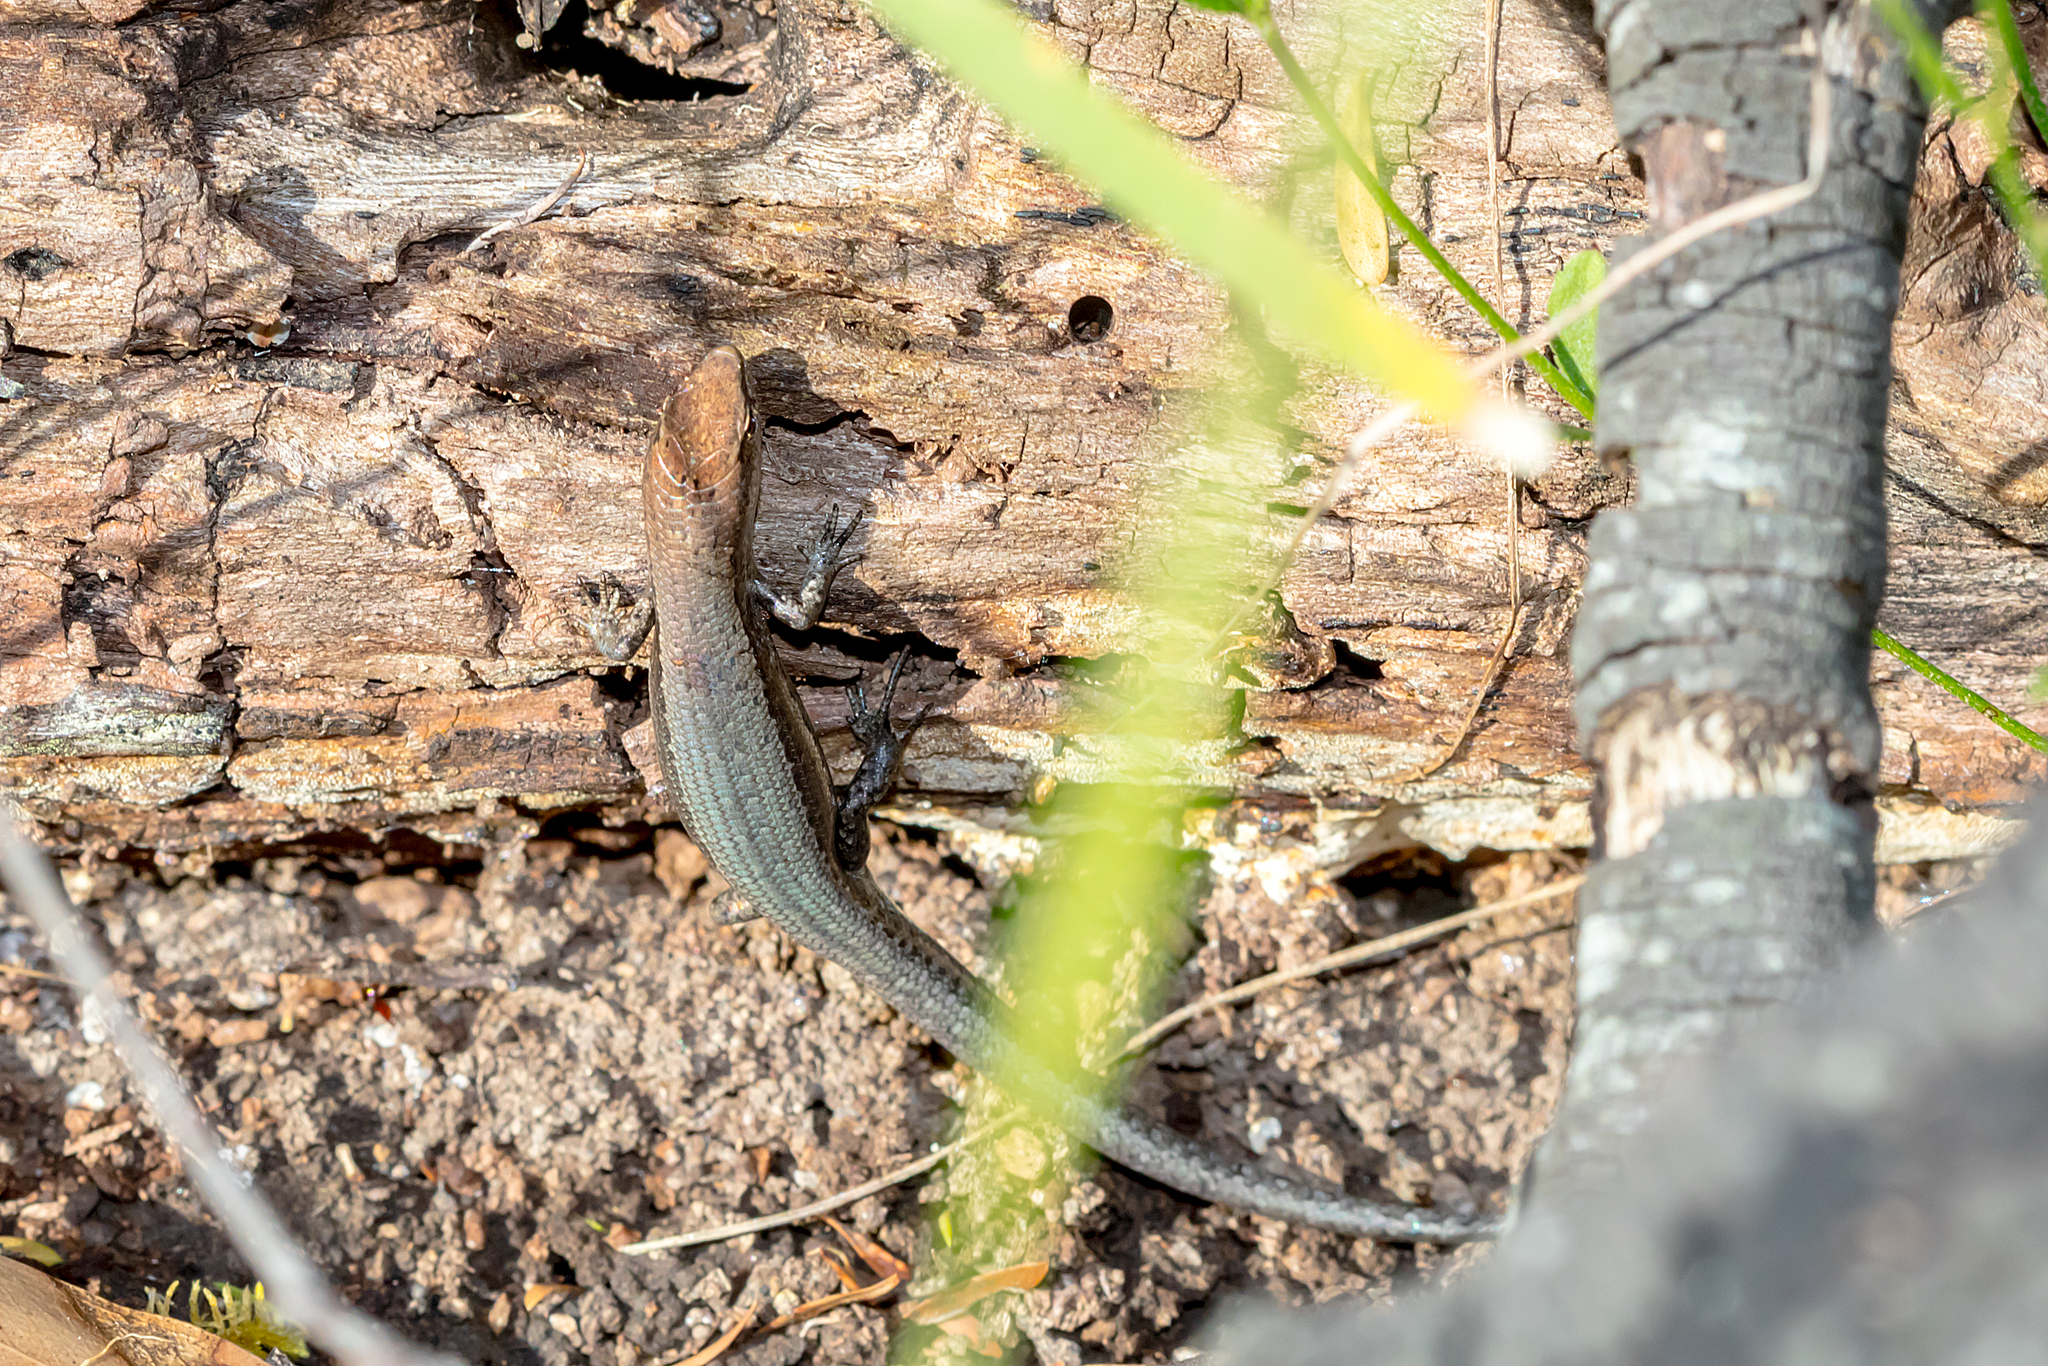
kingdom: Animalia
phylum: Chordata
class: Squamata
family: Scincidae
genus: Lampropholis
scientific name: Lampropholis guichenoti
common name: Garden skink
